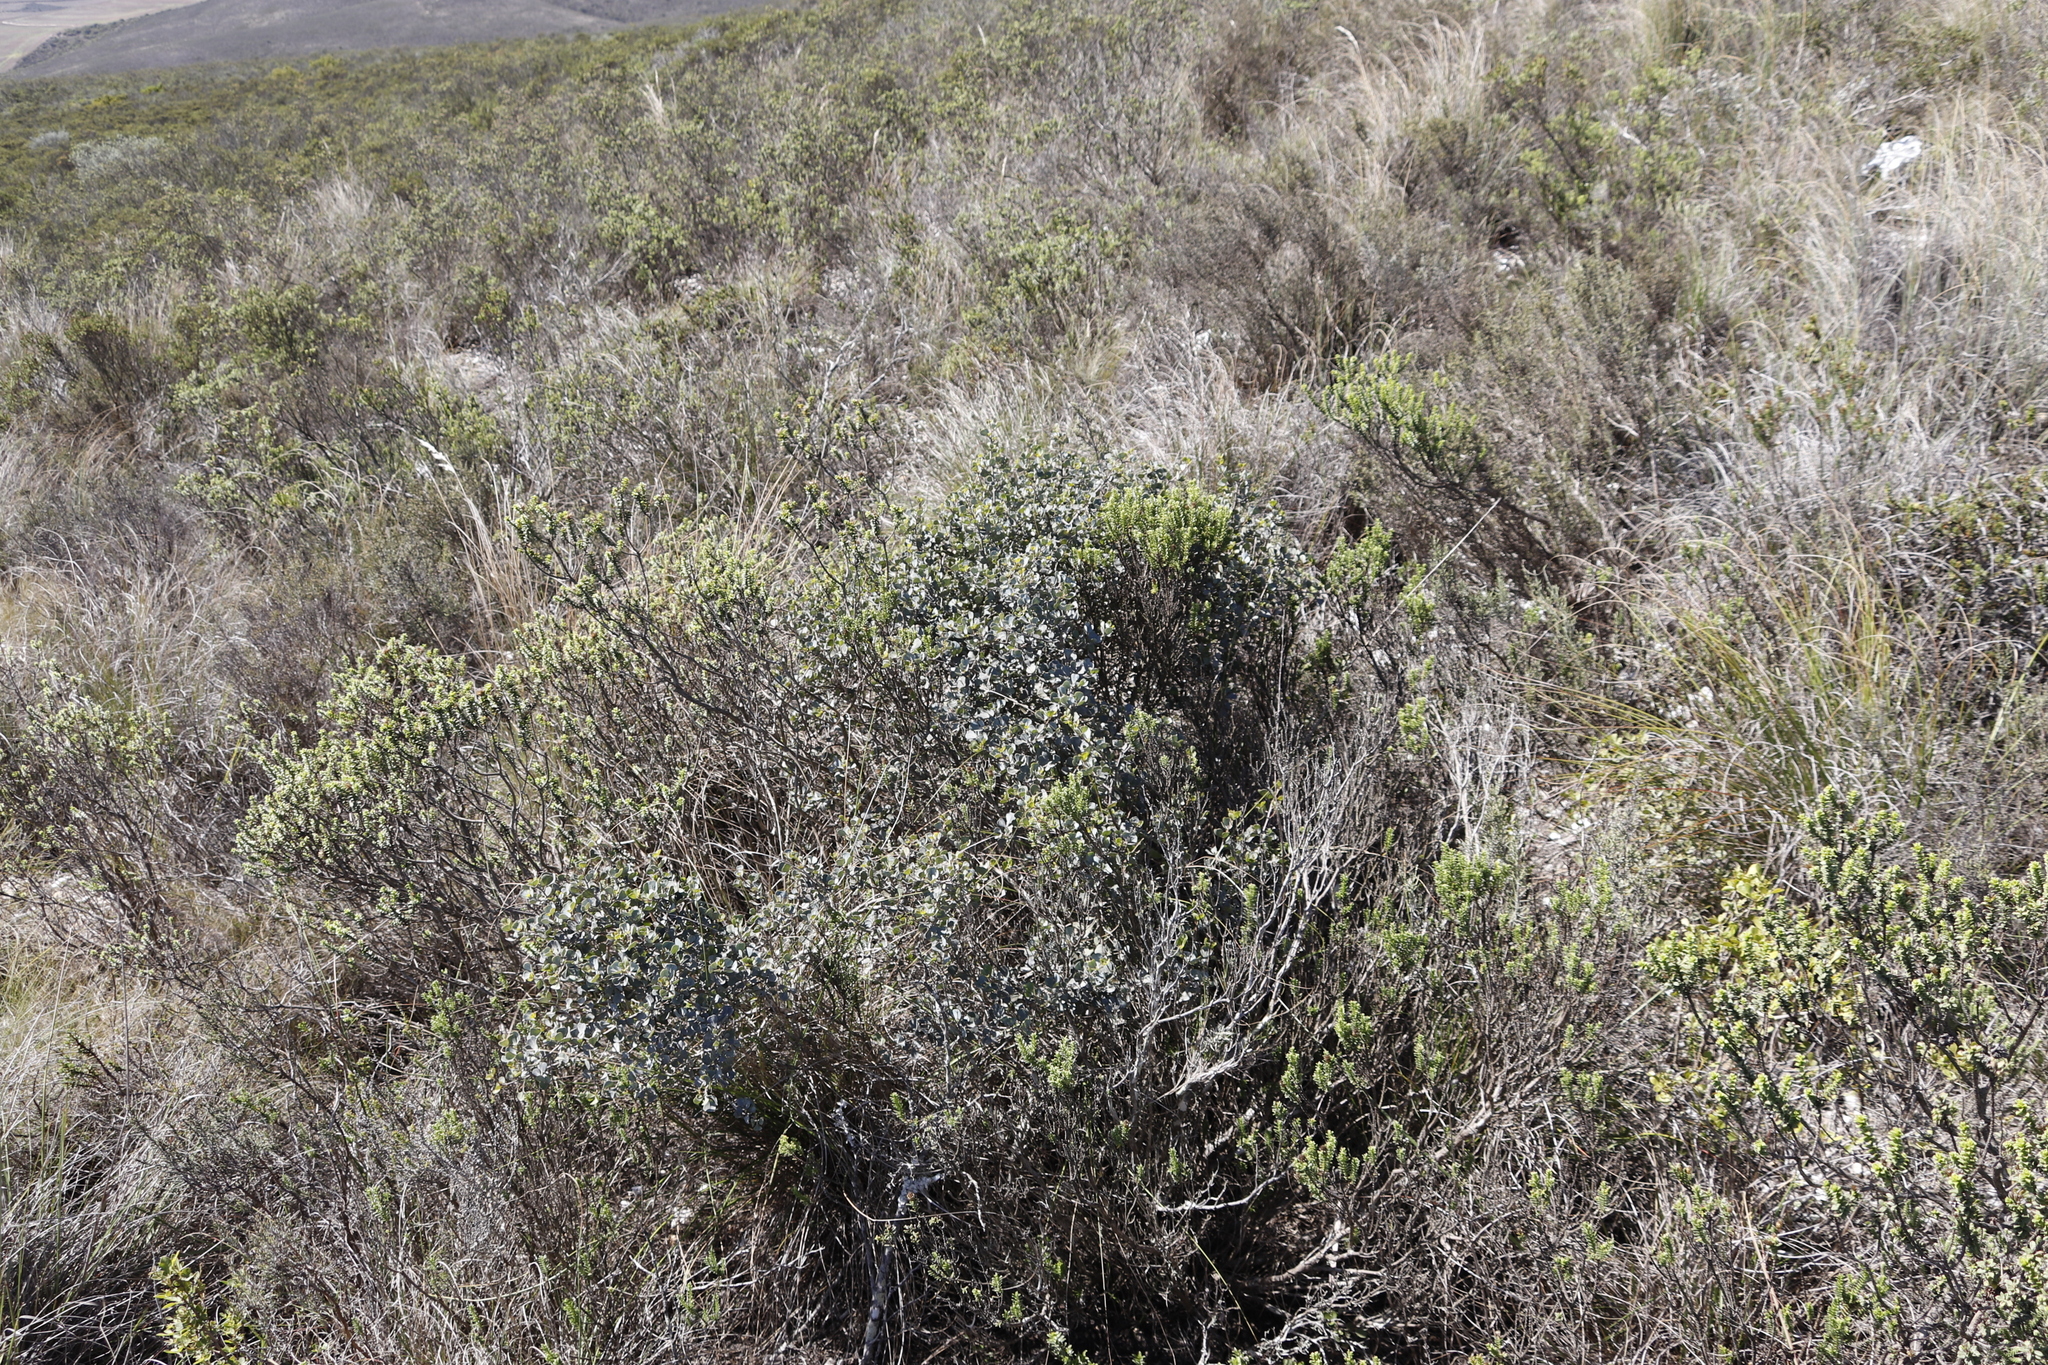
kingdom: Plantae
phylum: Tracheophyta
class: Magnoliopsida
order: Sapindales
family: Anacardiaceae
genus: Searsia
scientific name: Searsia glauca
